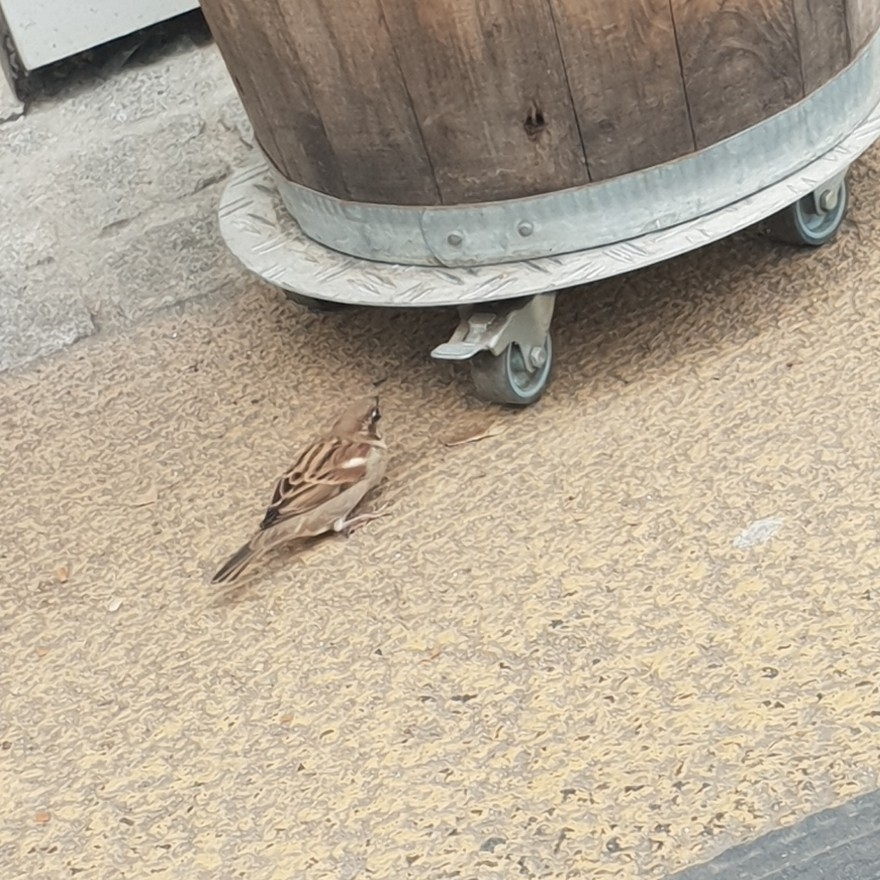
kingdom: Animalia
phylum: Chordata
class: Aves
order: Passeriformes
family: Passeridae
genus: Passer
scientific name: Passer domesticus
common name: House sparrow
